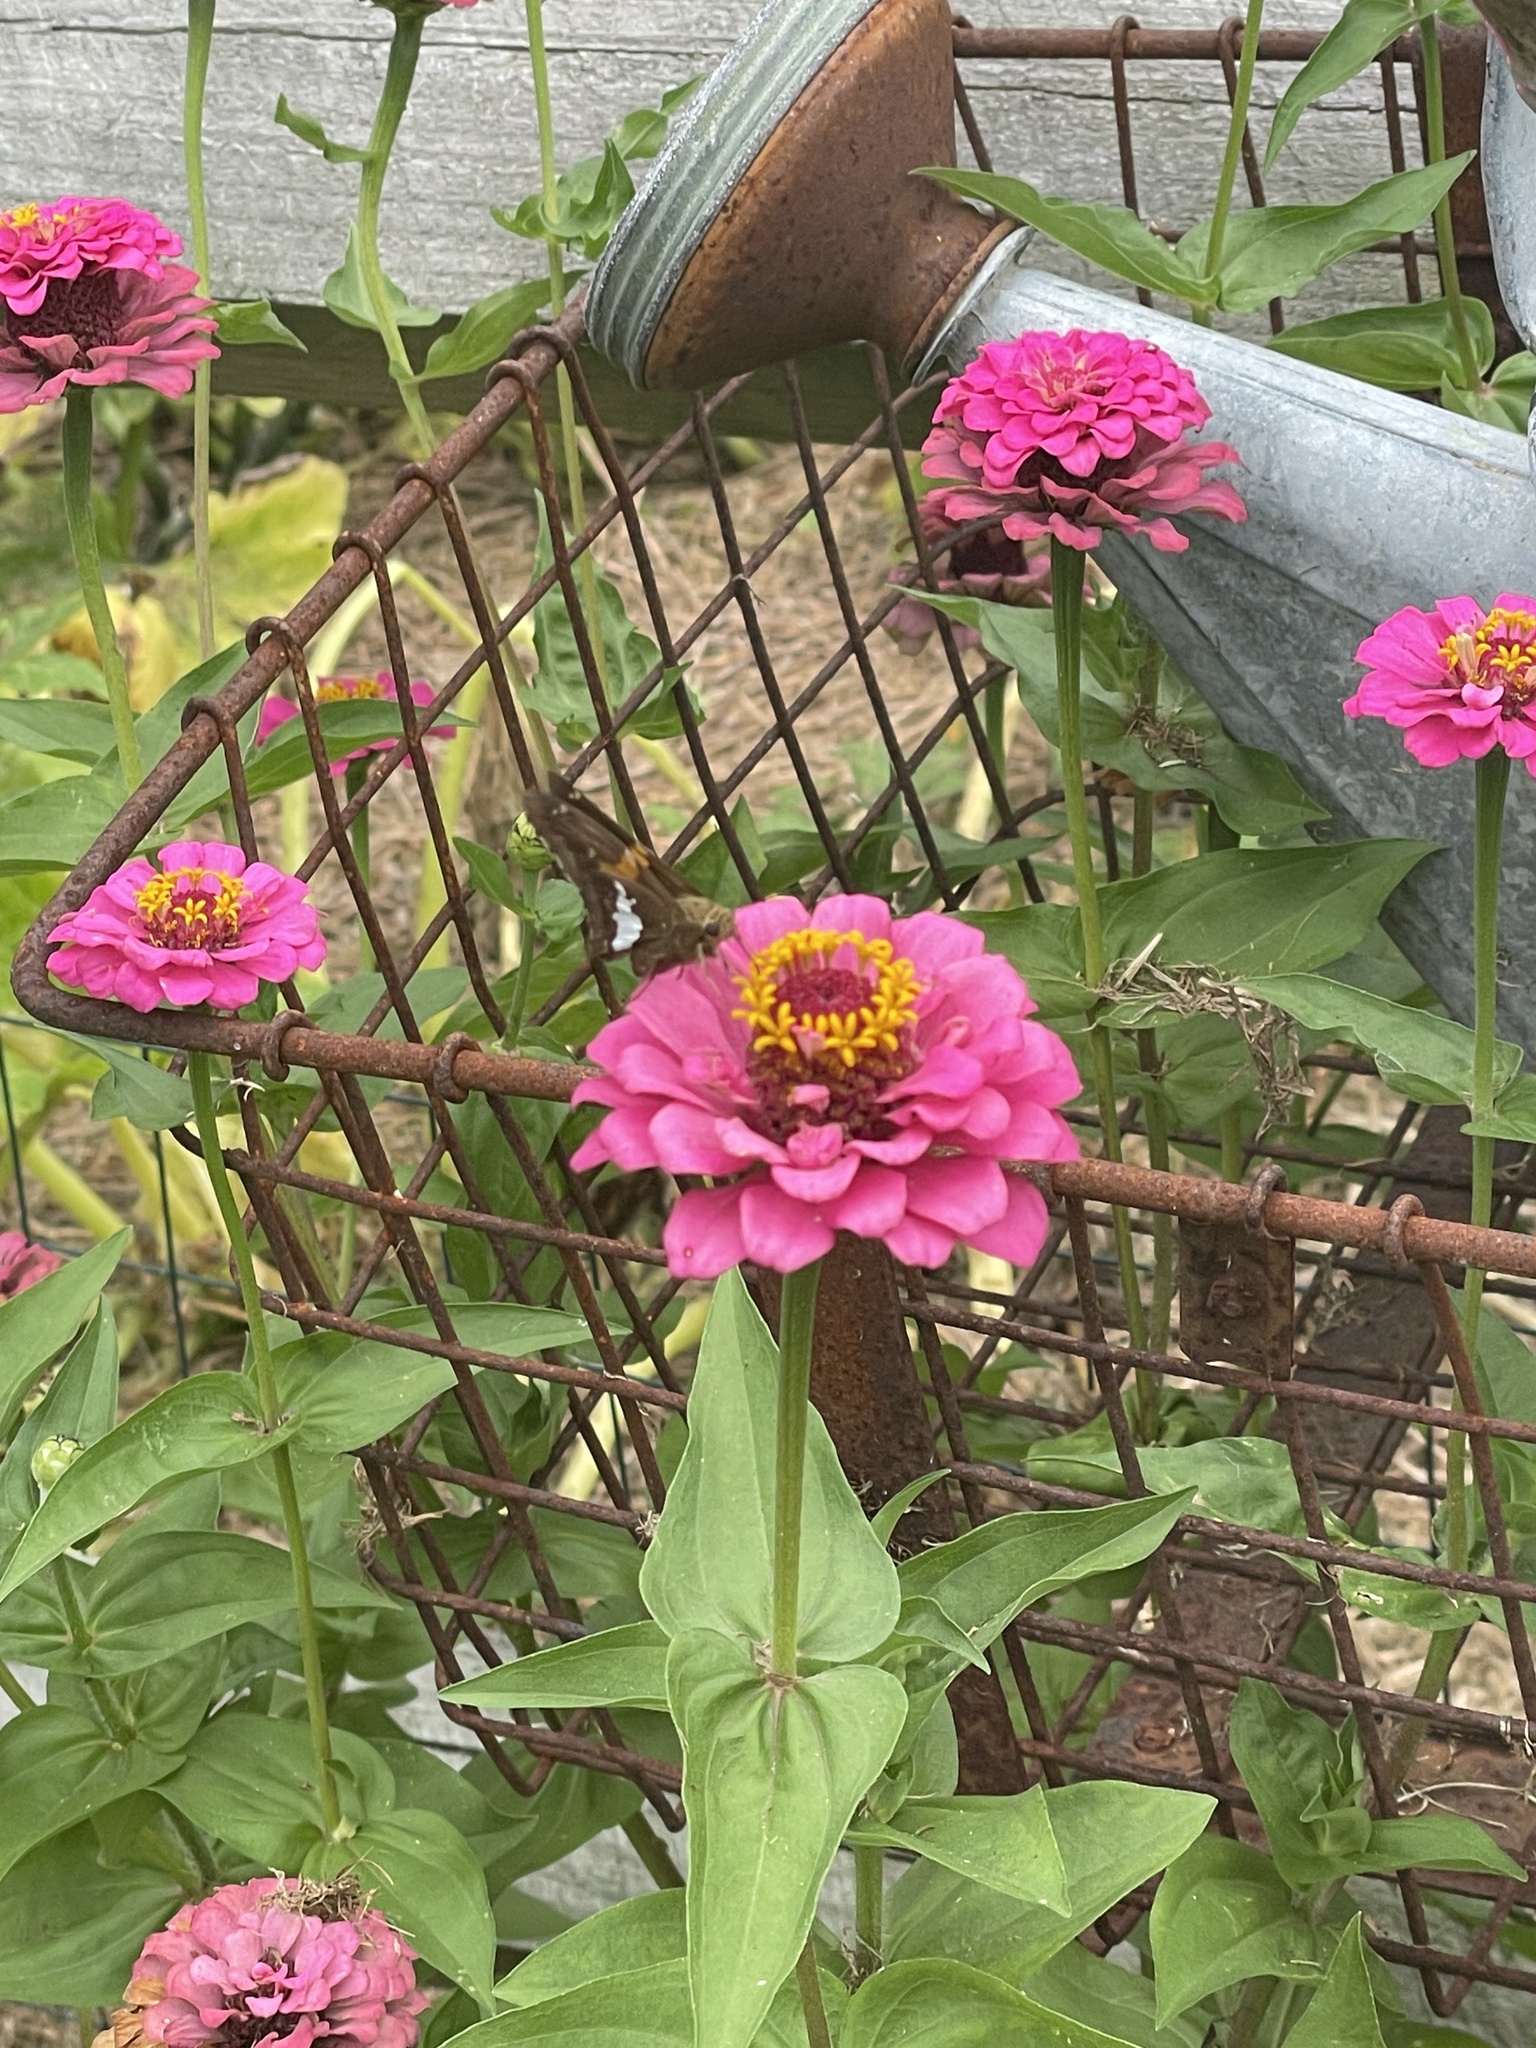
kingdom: Animalia
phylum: Arthropoda
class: Insecta
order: Lepidoptera
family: Hesperiidae
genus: Epargyreus
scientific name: Epargyreus clarus
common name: Silver-spotted skipper
